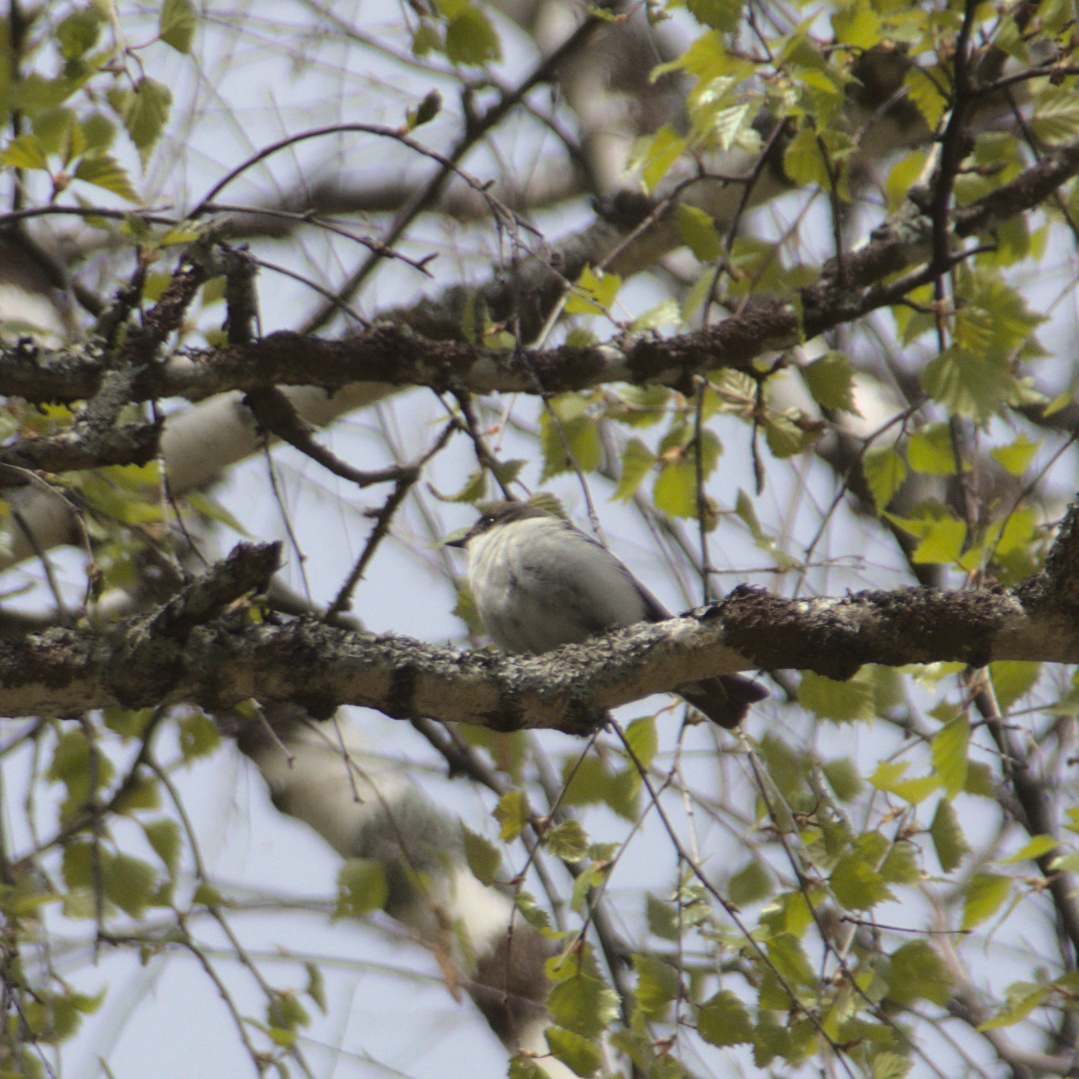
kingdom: Animalia
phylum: Chordata
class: Aves
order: Passeriformes
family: Muscicapidae
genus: Ficedula
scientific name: Ficedula hypoleuca
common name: European pied flycatcher
